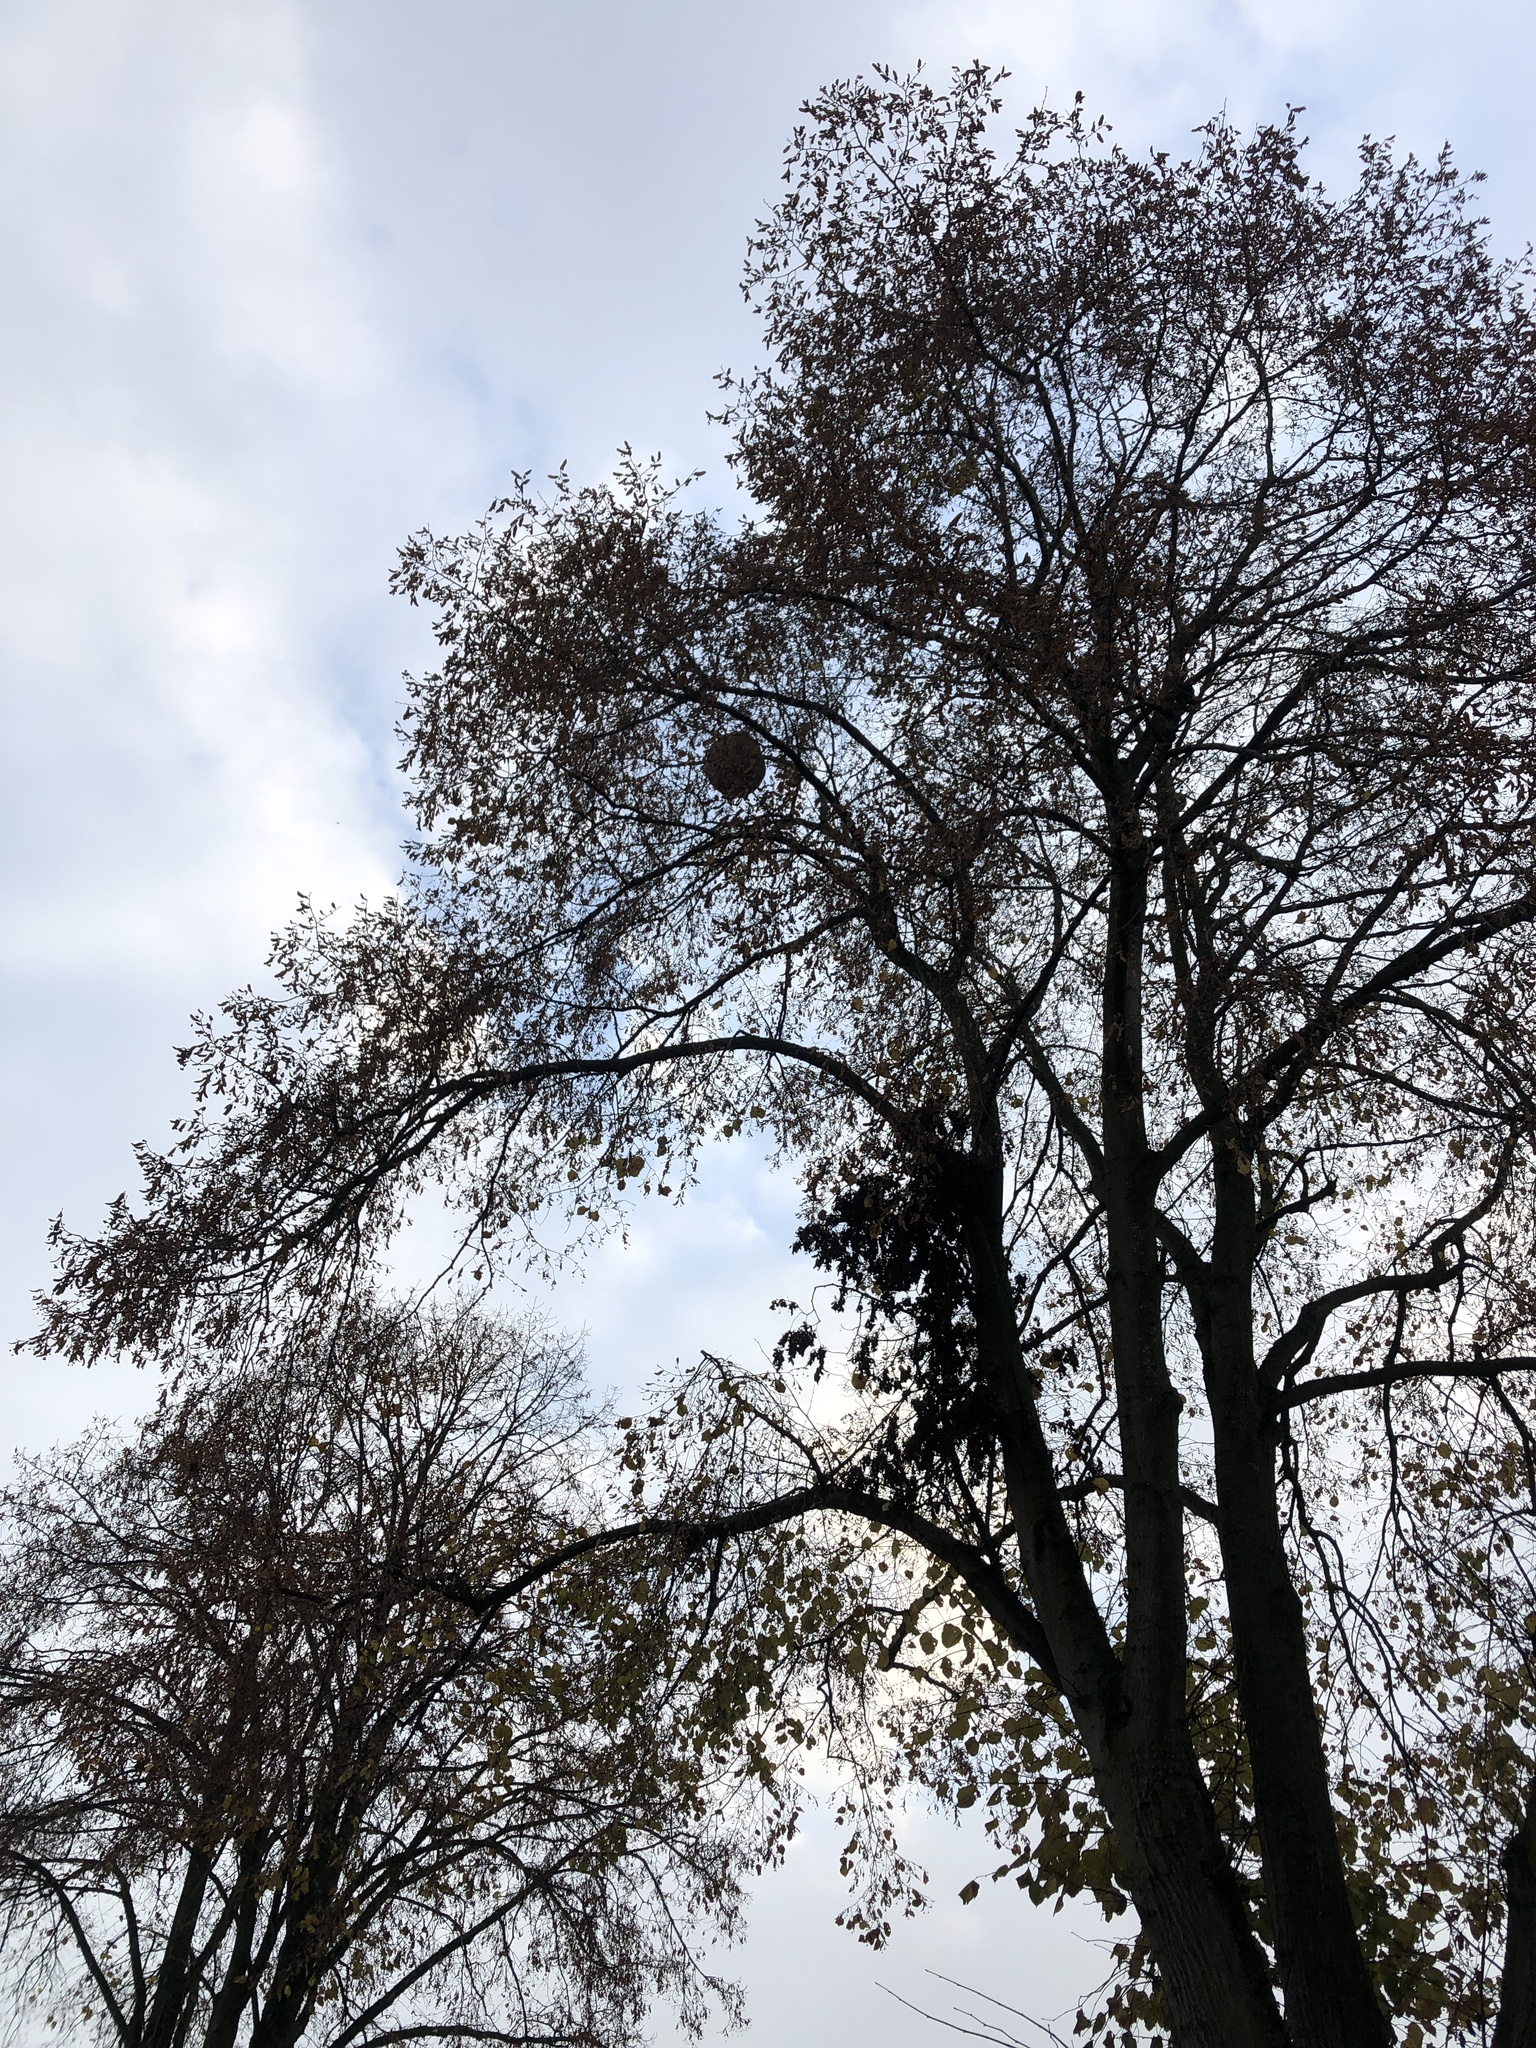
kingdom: Animalia
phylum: Arthropoda
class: Insecta
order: Hymenoptera
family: Vespidae
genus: Vespa
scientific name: Vespa velutina
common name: Asian hornet
